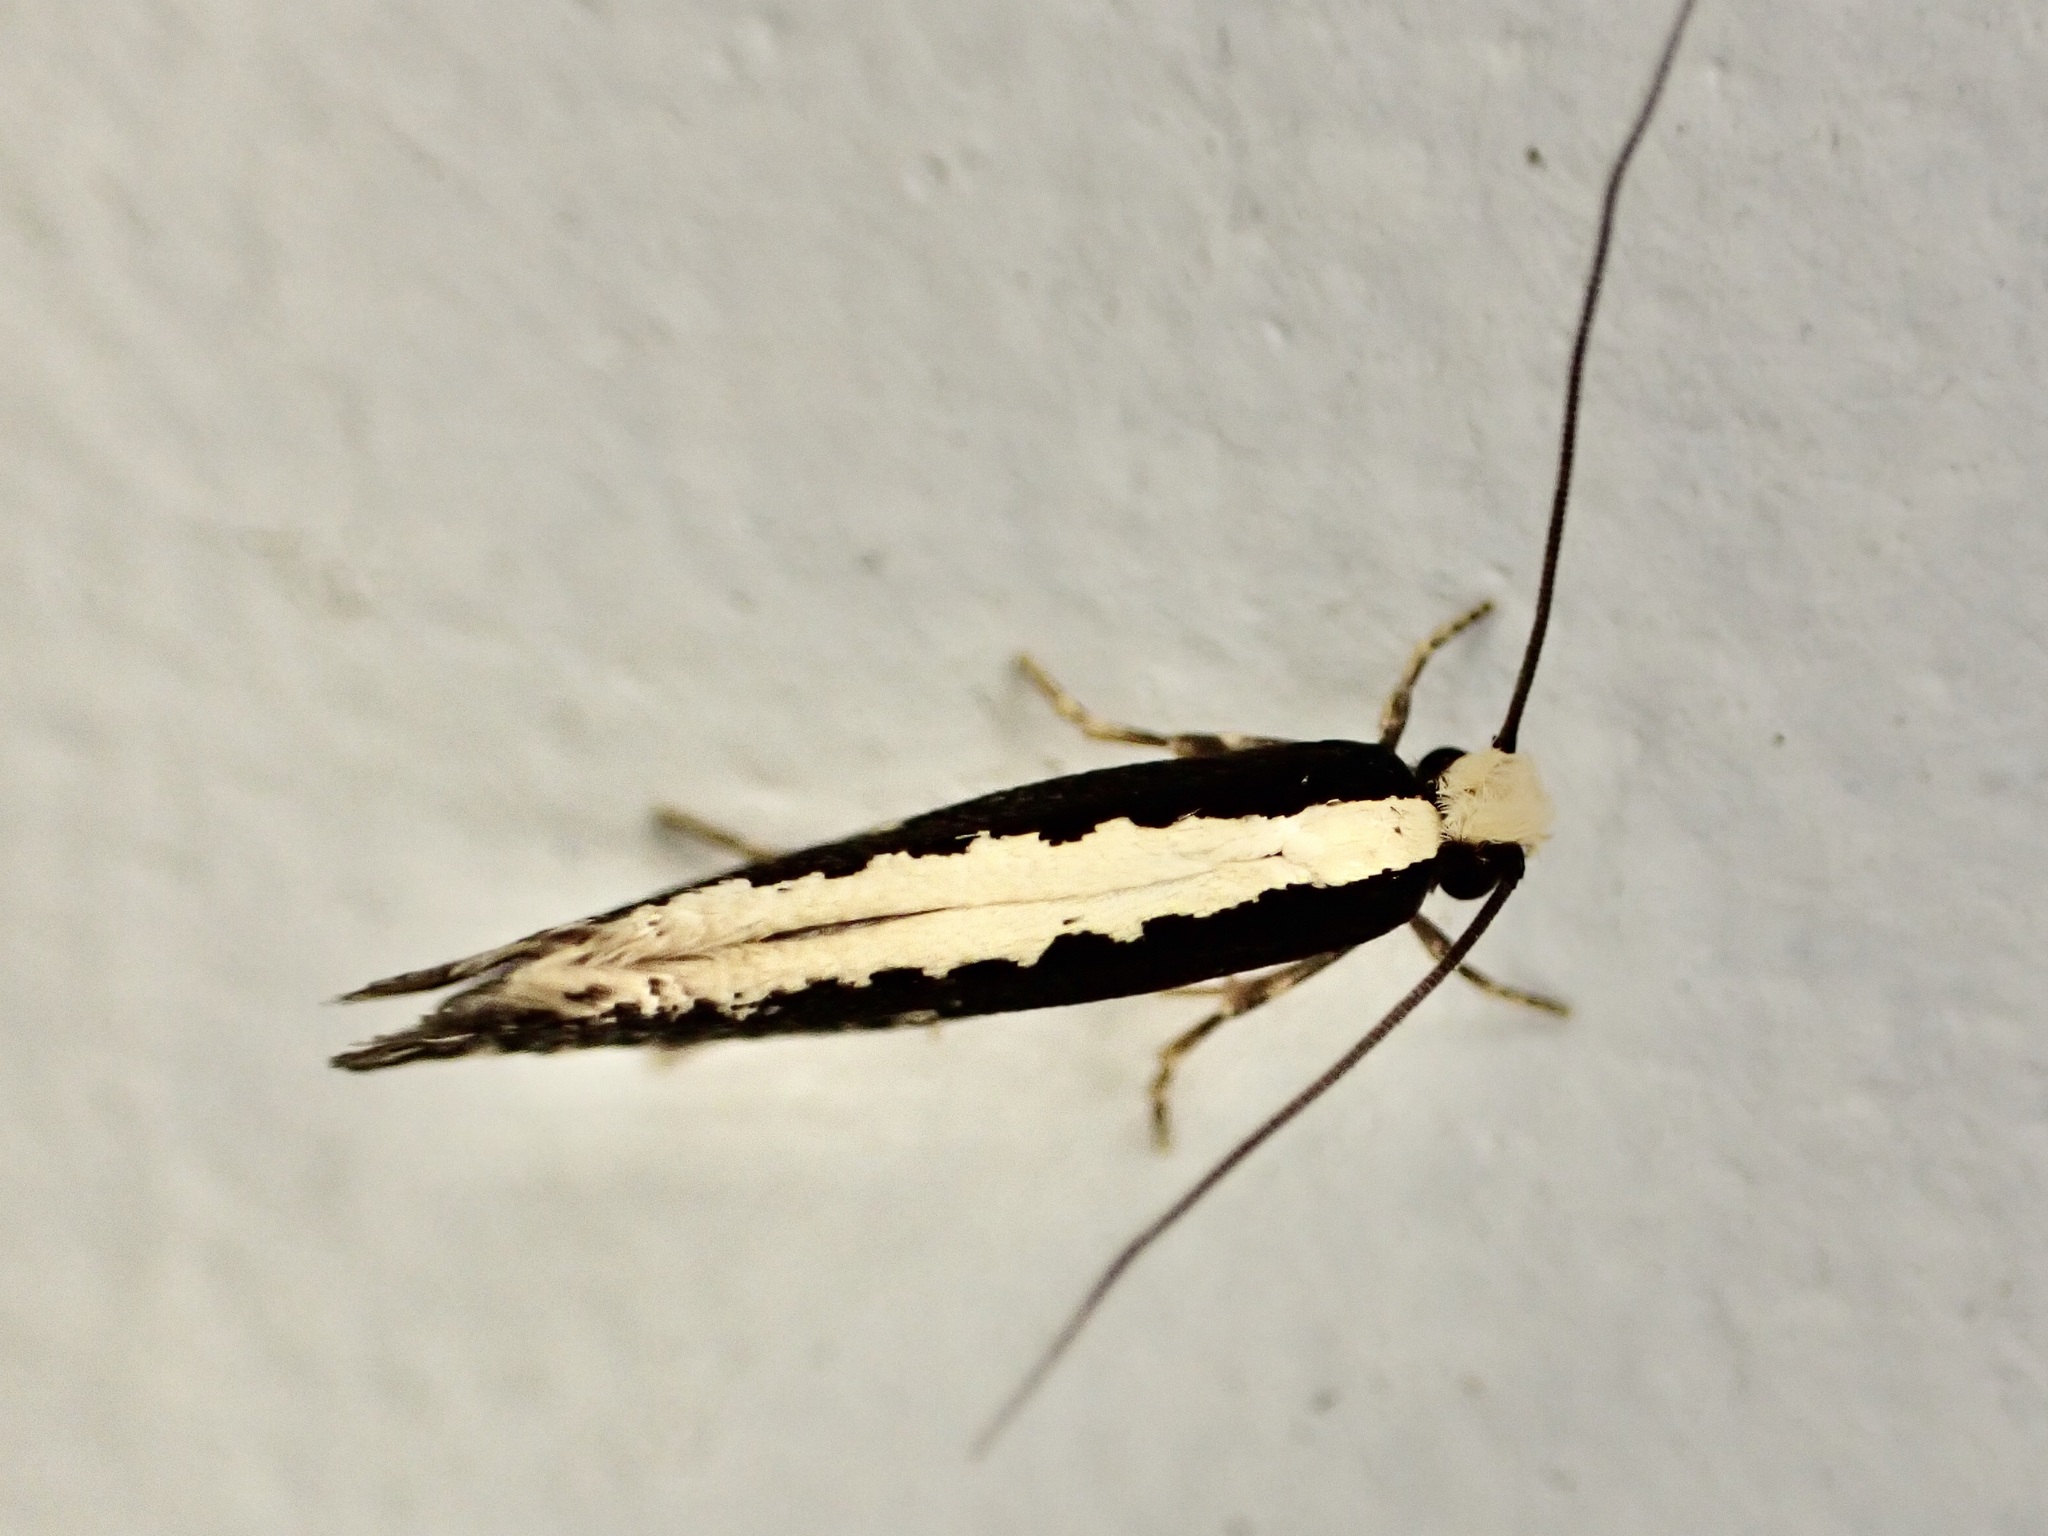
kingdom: Animalia
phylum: Arthropoda
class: Insecta
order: Lepidoptera
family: Tineidae
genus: Monopis
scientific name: Monopis ethelella
